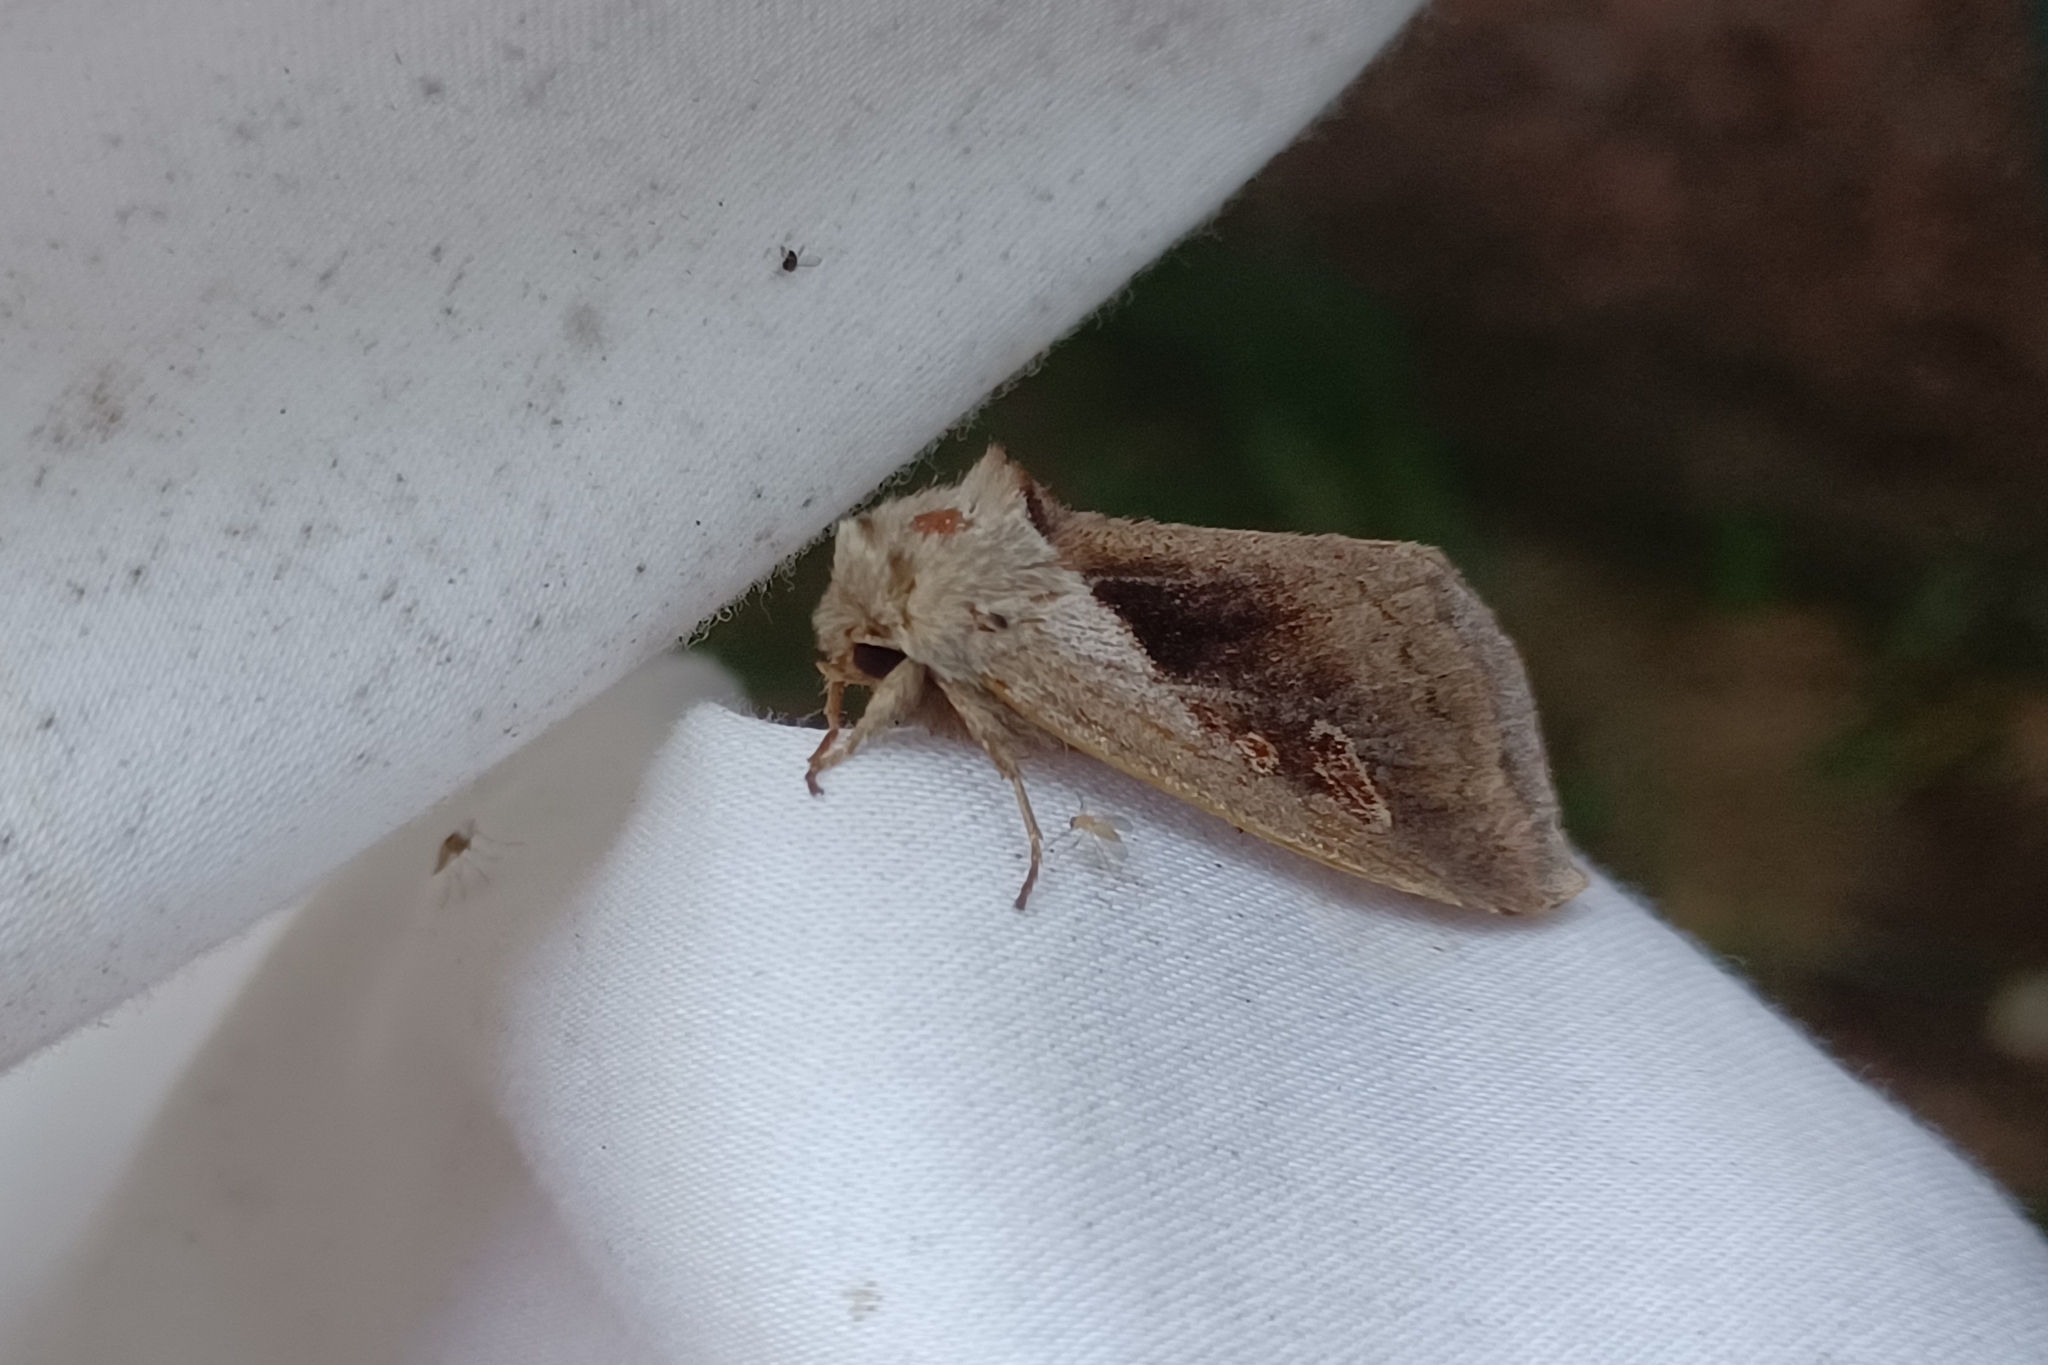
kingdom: Animalia
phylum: Arthropoda
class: Insecta
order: Lepidoptera
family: Noctuidae
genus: Bellura
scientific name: Bellura obliqua
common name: Cattail borer moth
